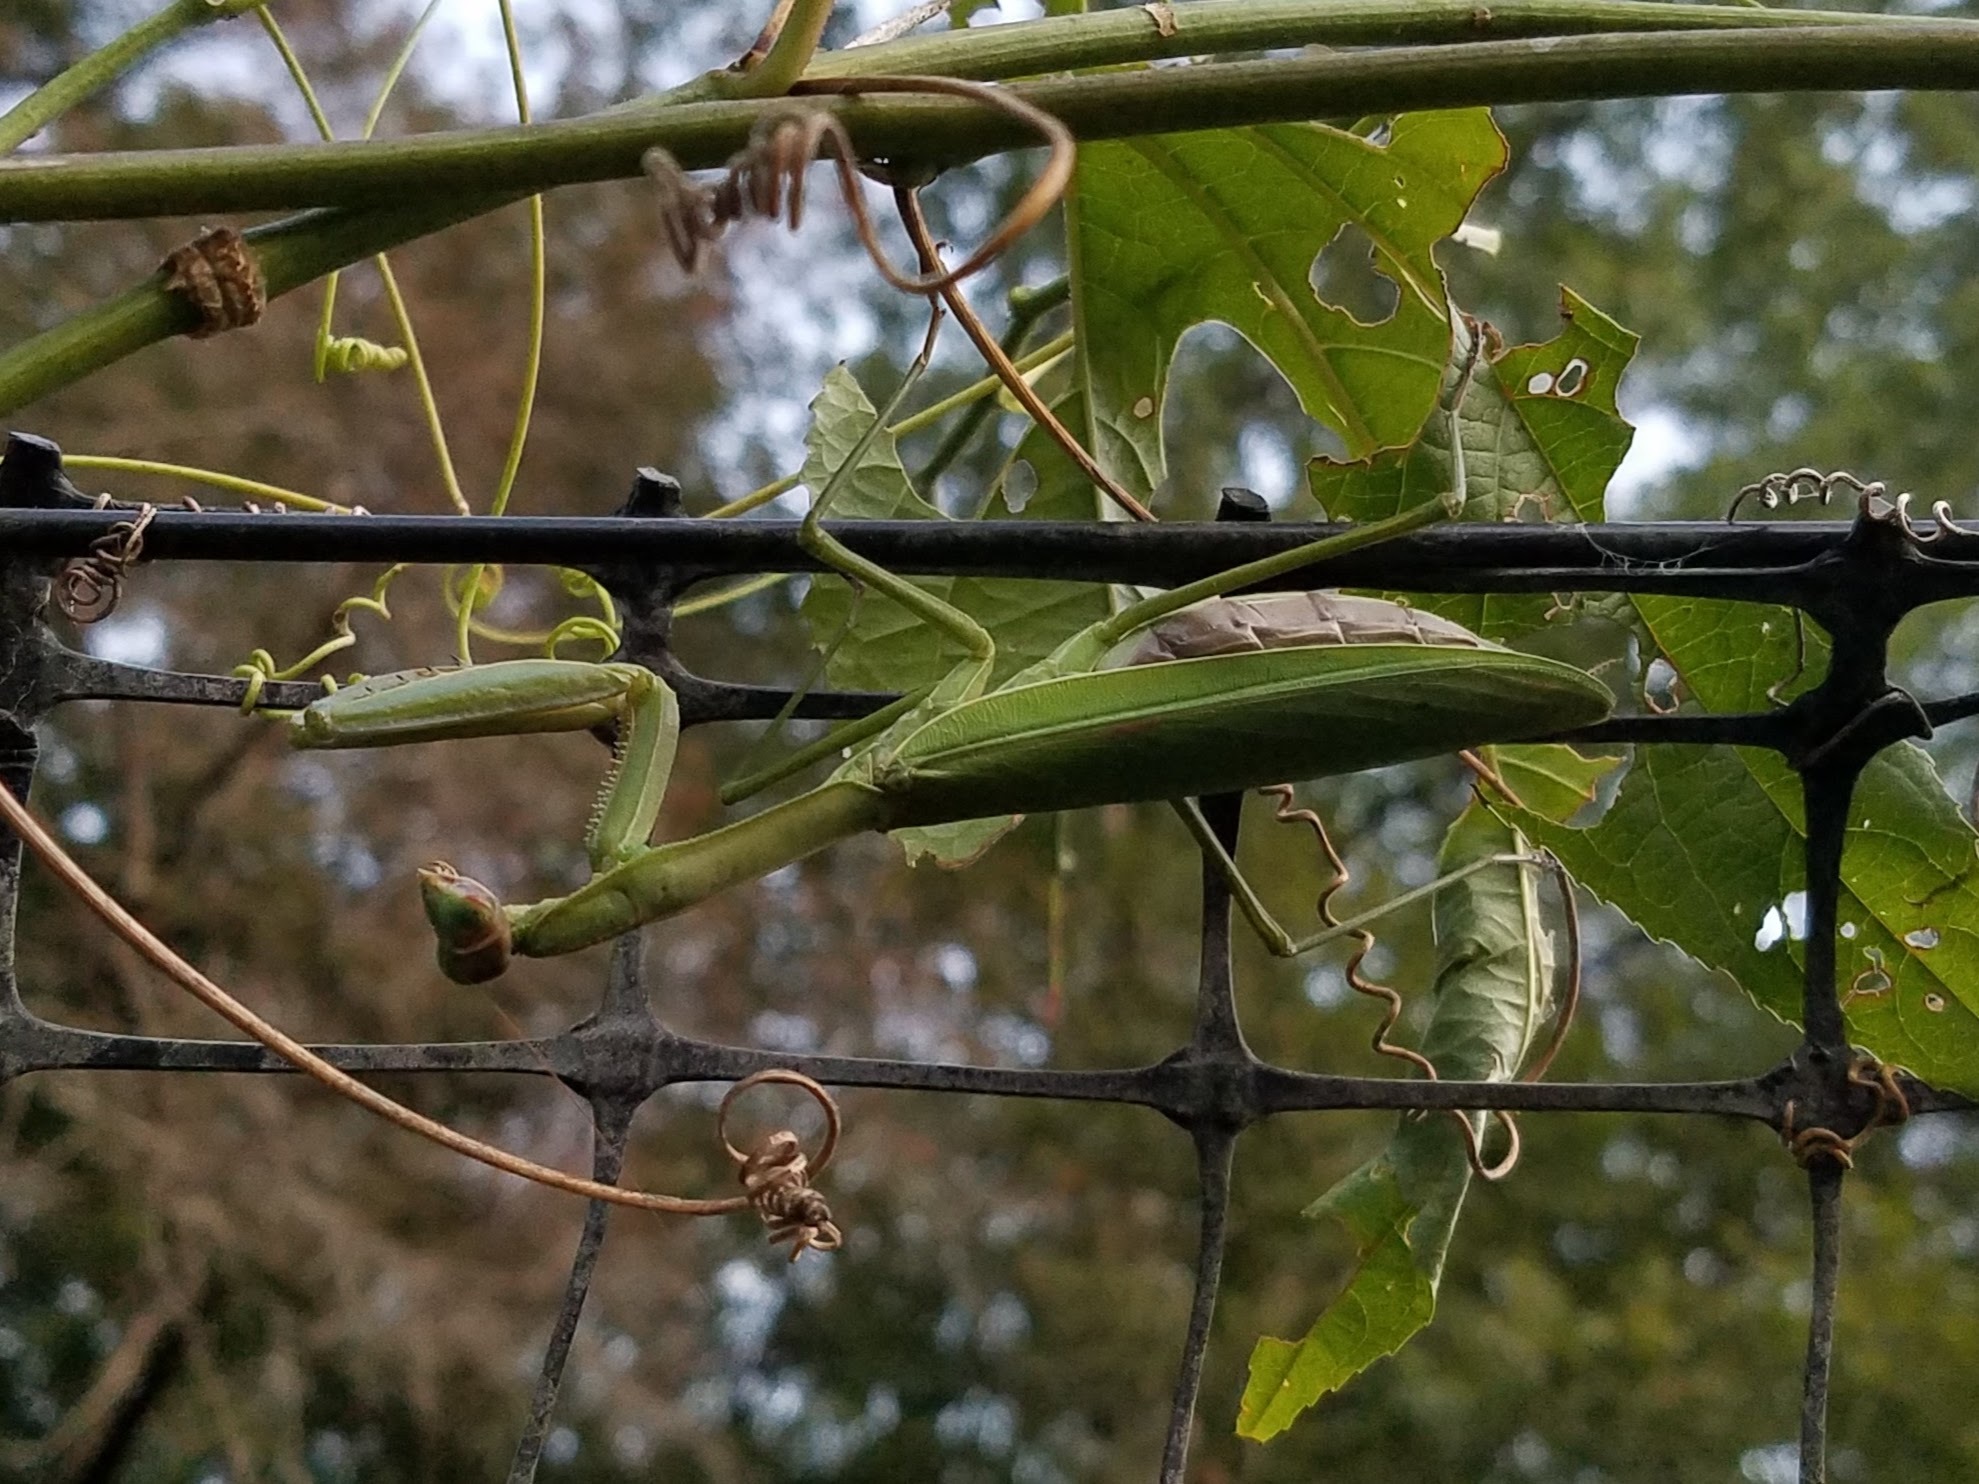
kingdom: Animalia
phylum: Arthropoda
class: Insecta
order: Mantodea
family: Mantidae
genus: Tenodera
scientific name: Tenodera sinensis
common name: Chinese mantis
